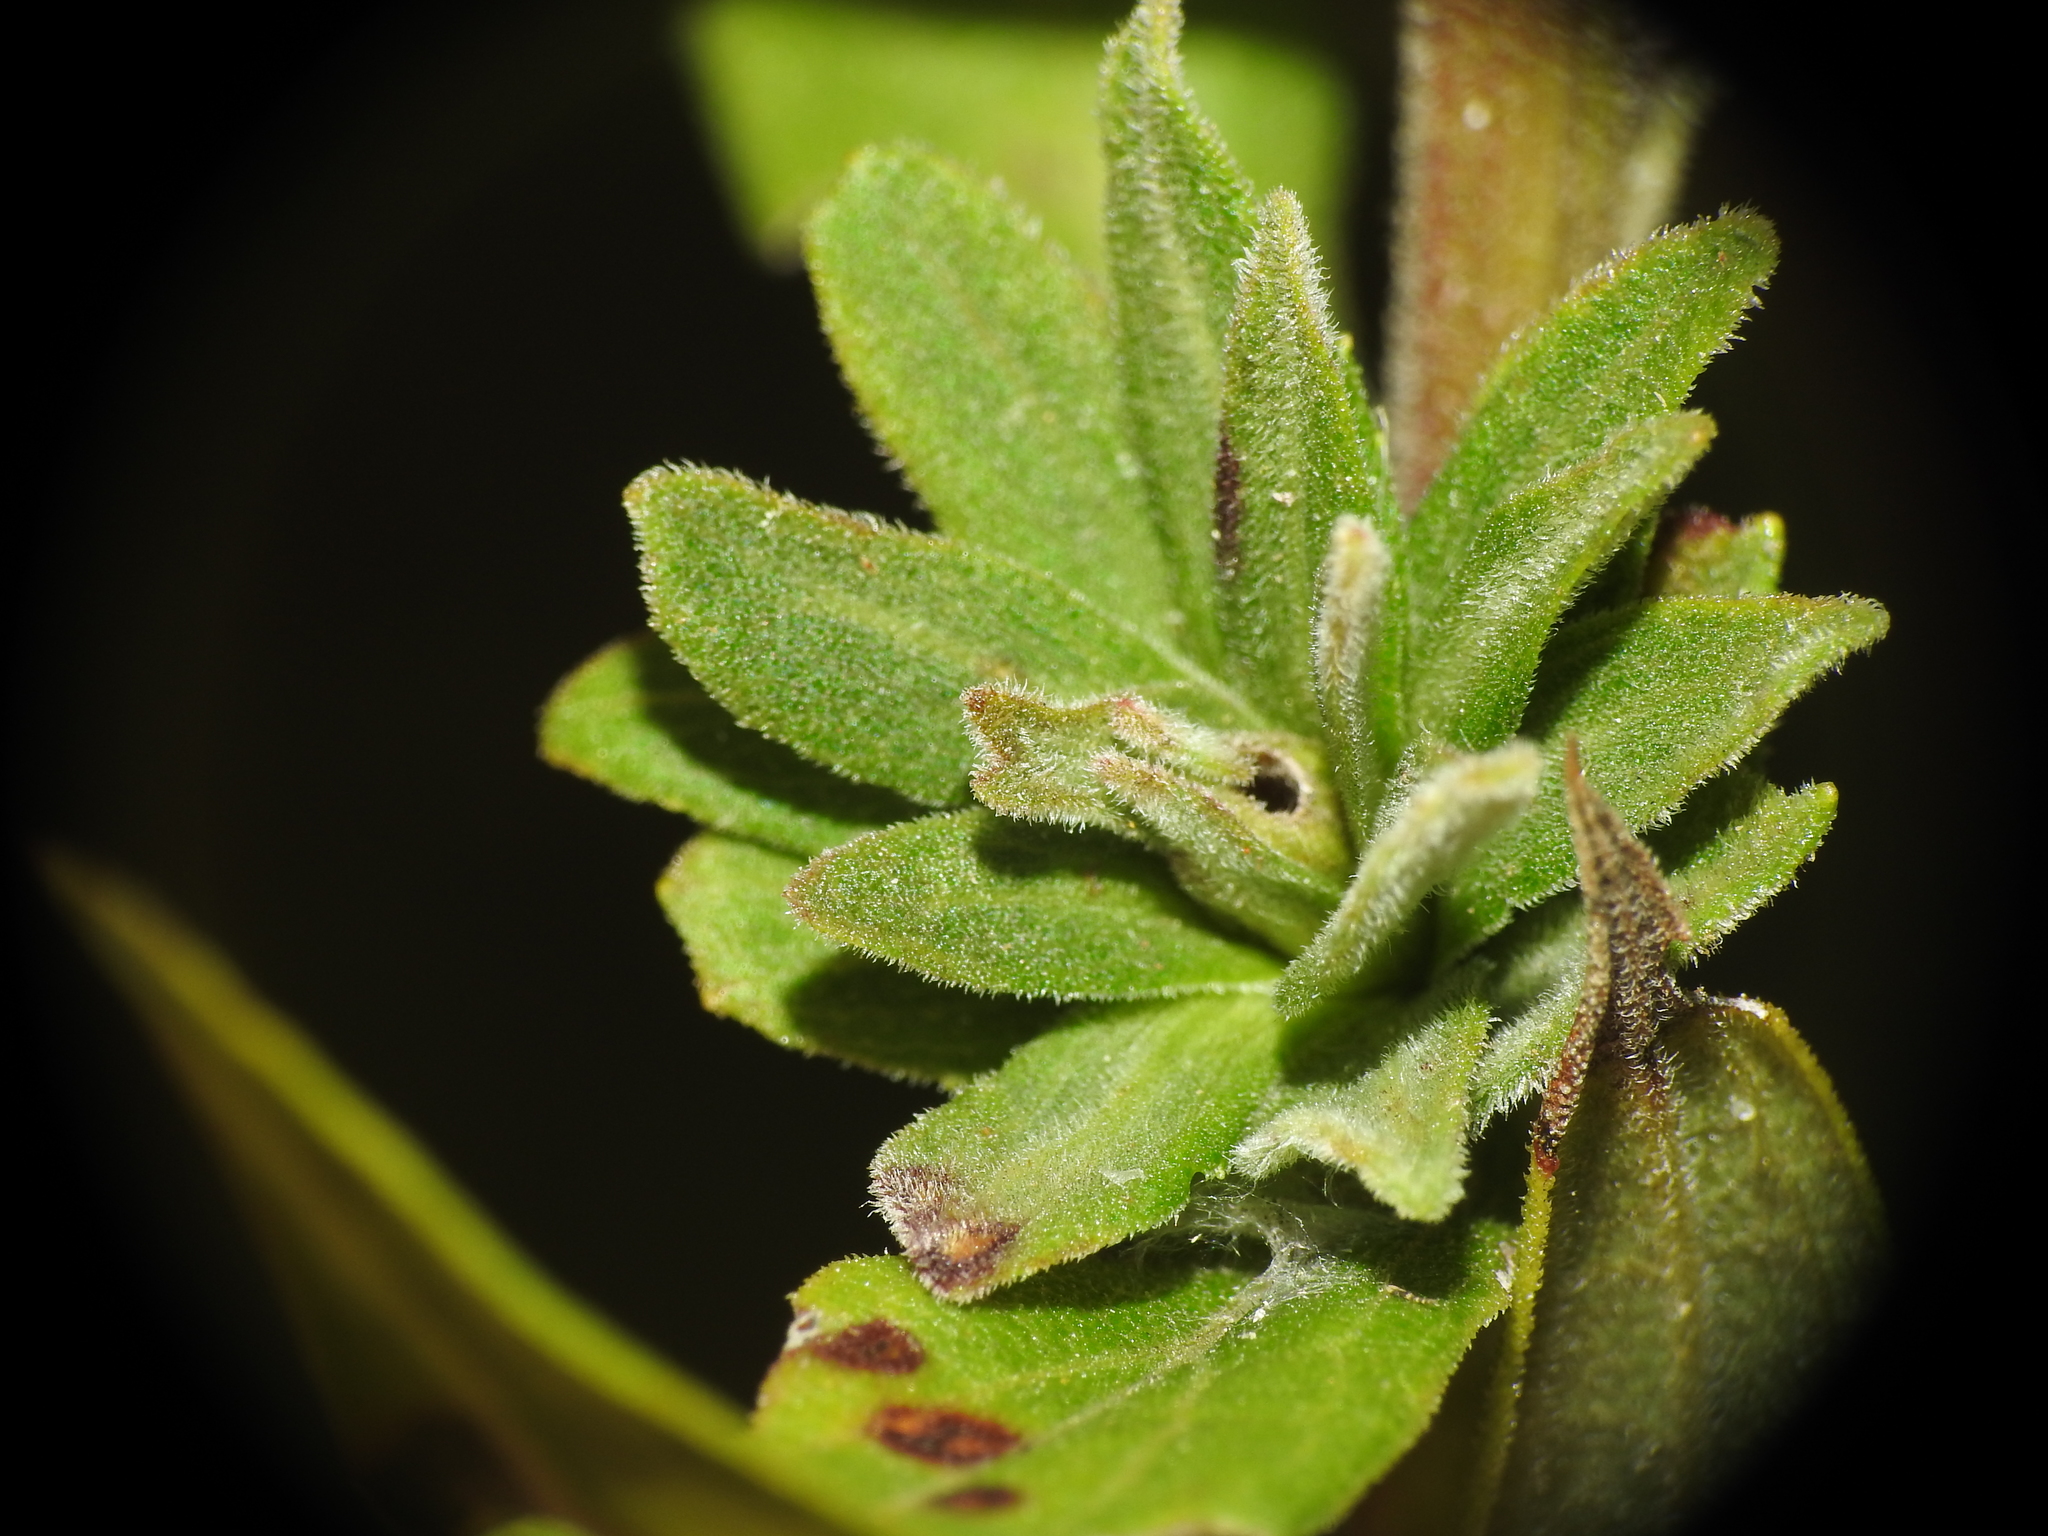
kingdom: Animalia
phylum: Arthropoda
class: Insecta
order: Diptera
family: Cecidomyiidae
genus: Asphondylia
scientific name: Asphondylia solidaginis
